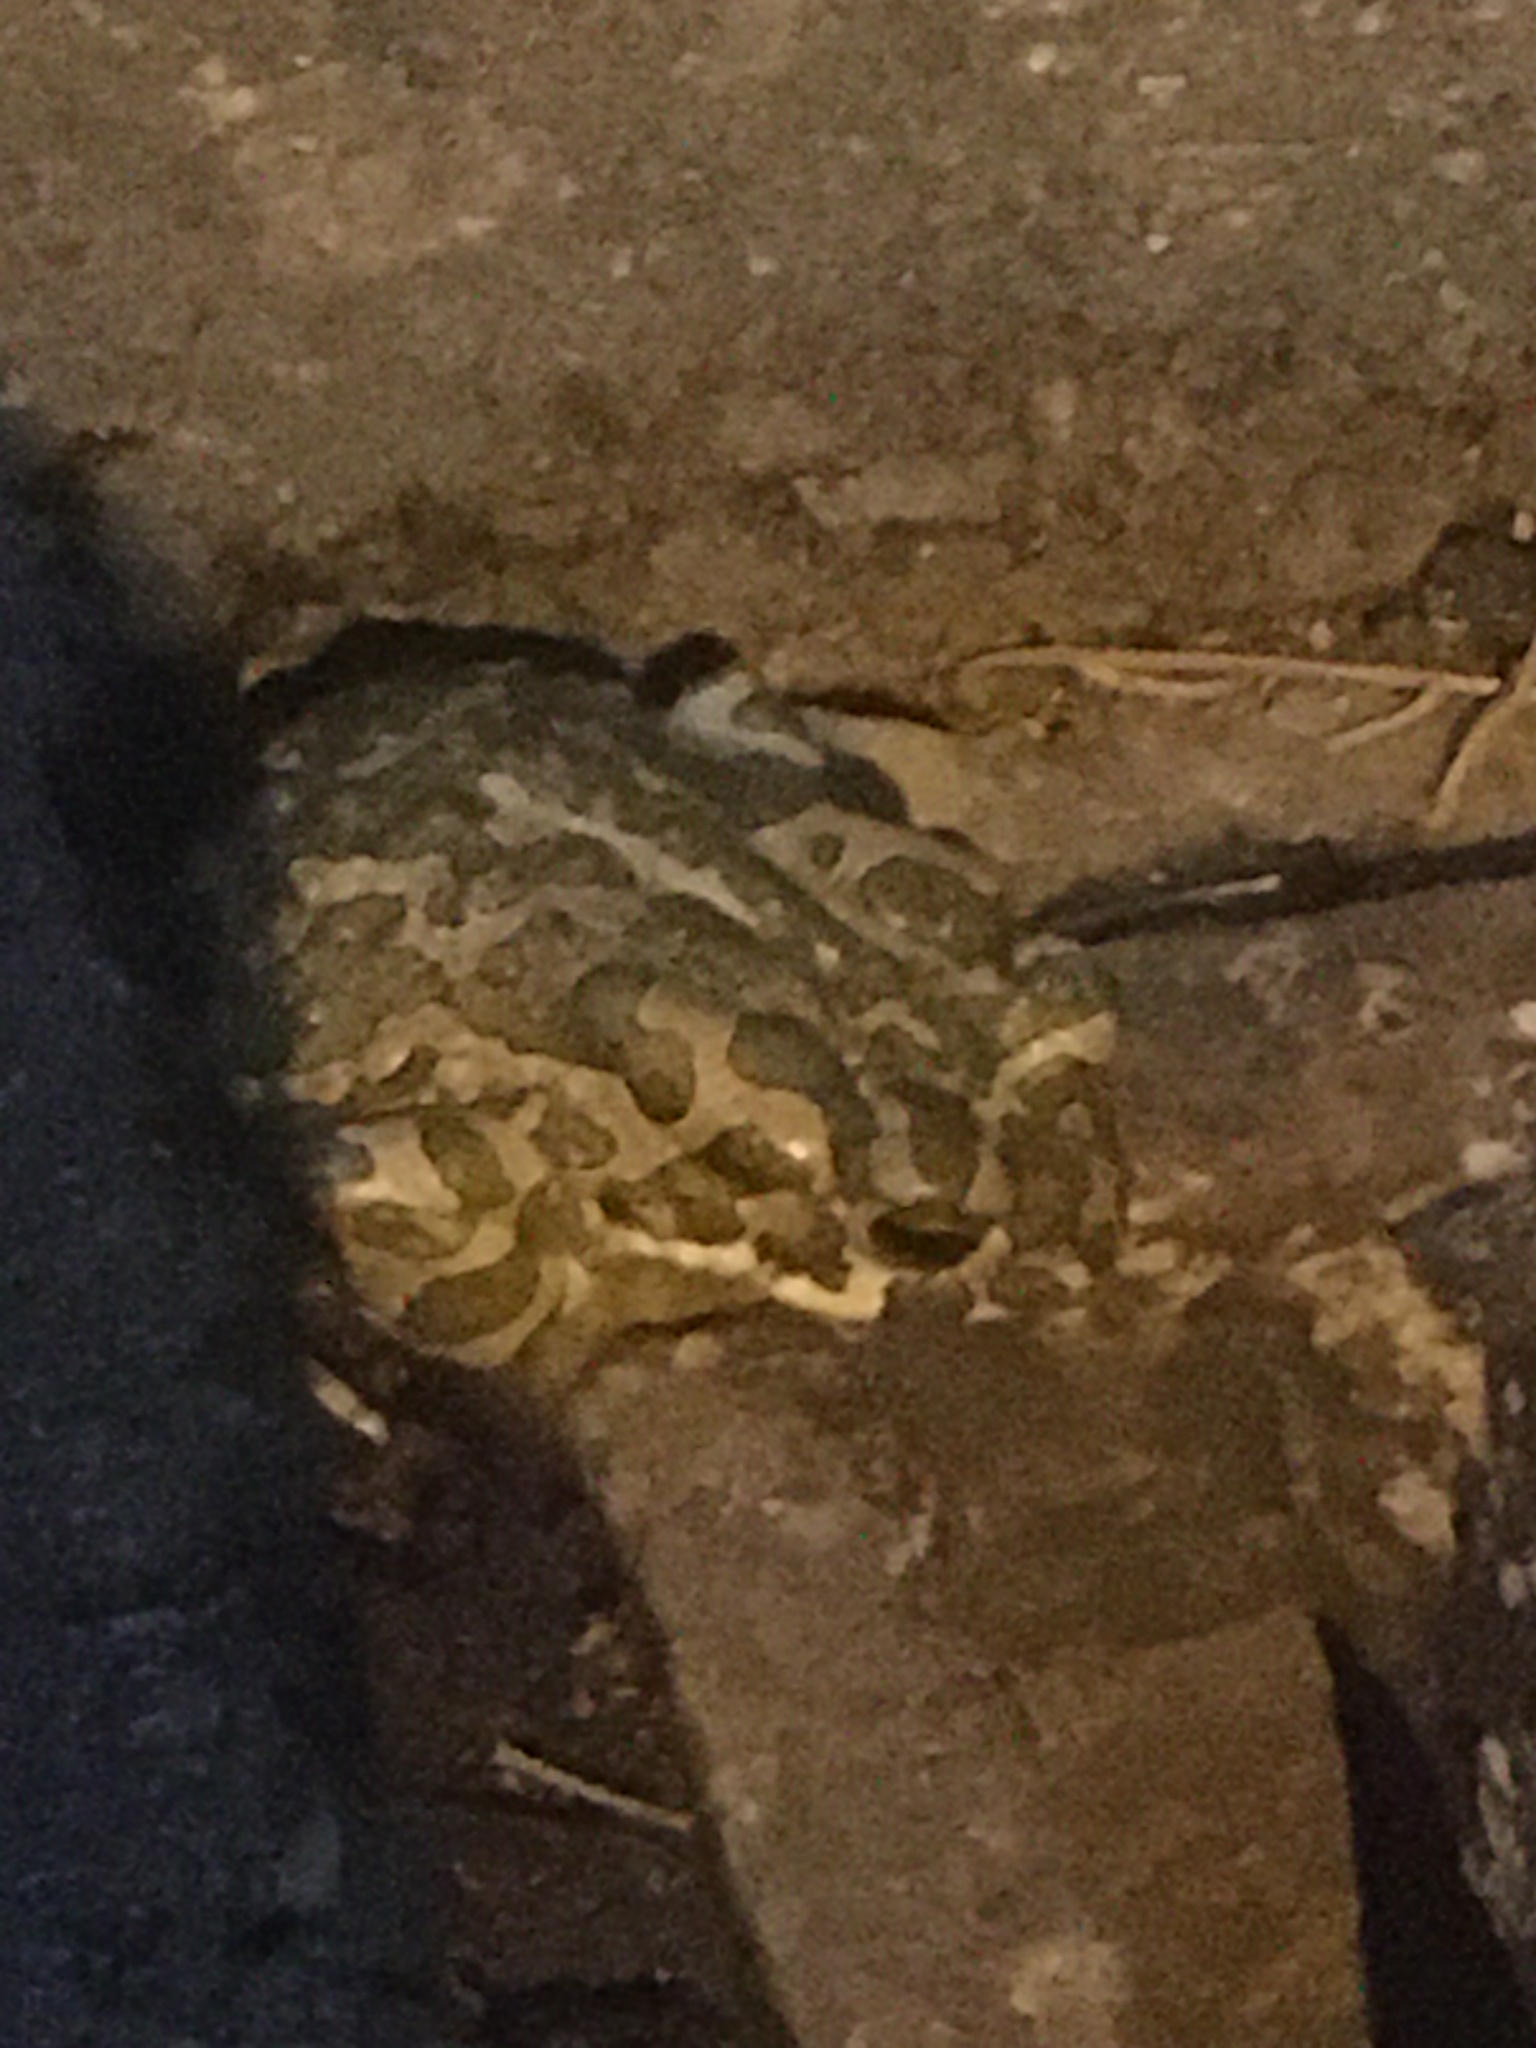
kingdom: Animalia
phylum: Chordata
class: Amphibia
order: Anura
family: Bufonidae
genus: Bufotes
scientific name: Bufotes viridis
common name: European green toad
